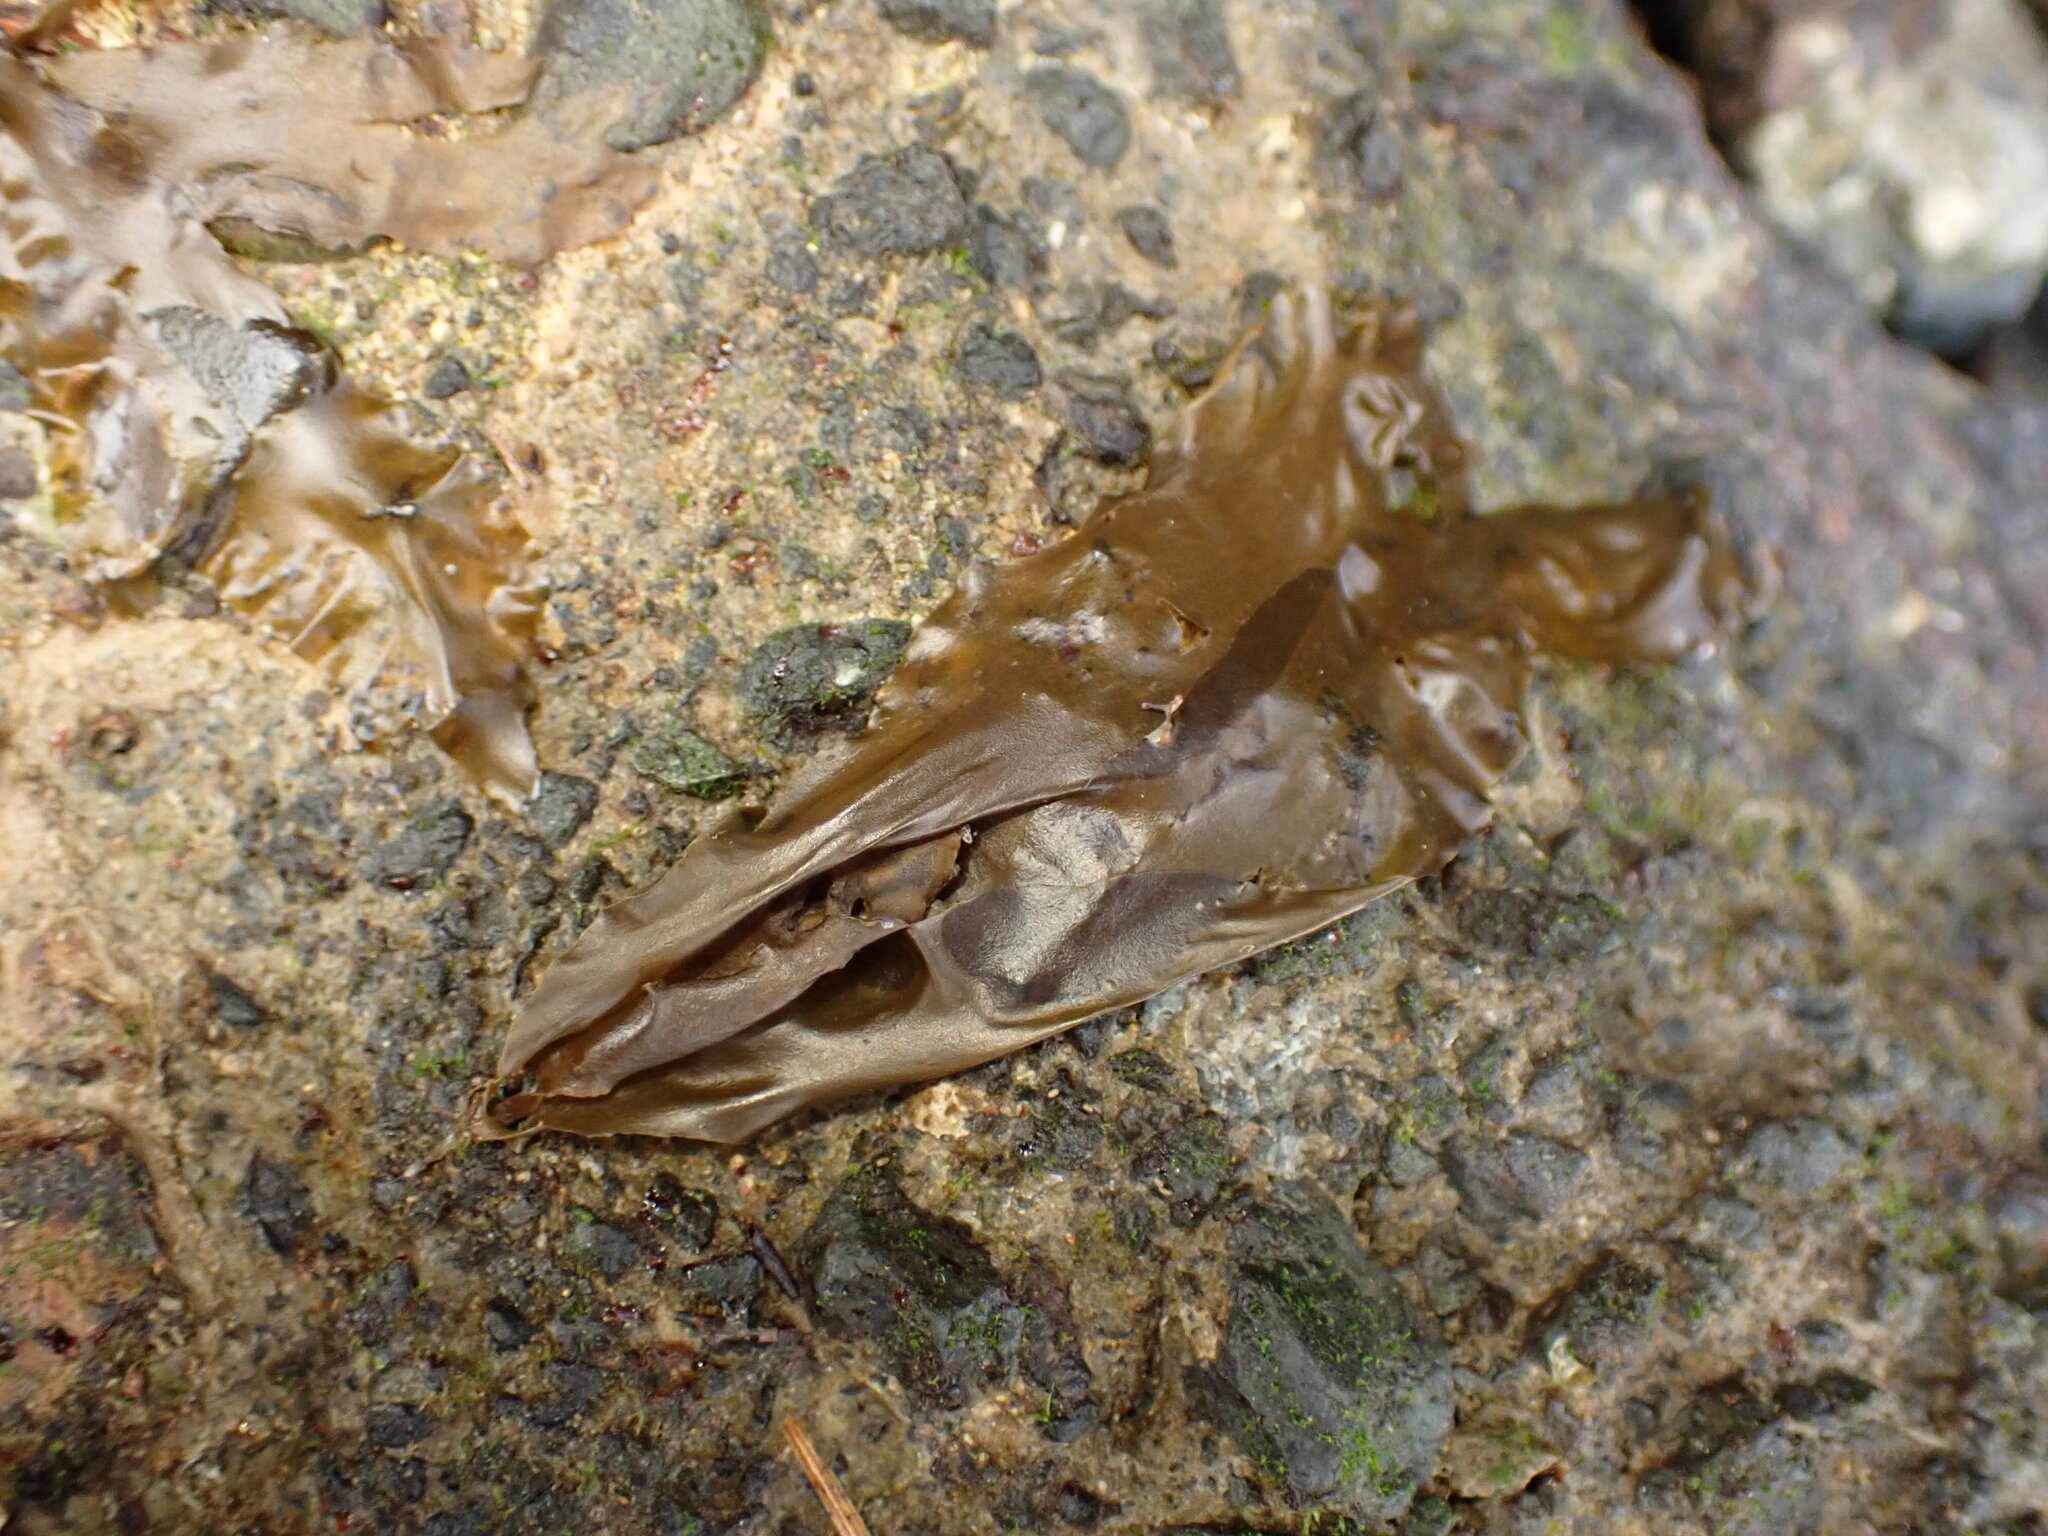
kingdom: Chromista
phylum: Ochrophyta
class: Phaeophyceae
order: Scytosiphonales
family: Scytosiphonaceae
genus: Petalonia
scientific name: Petalonia binghamiae
